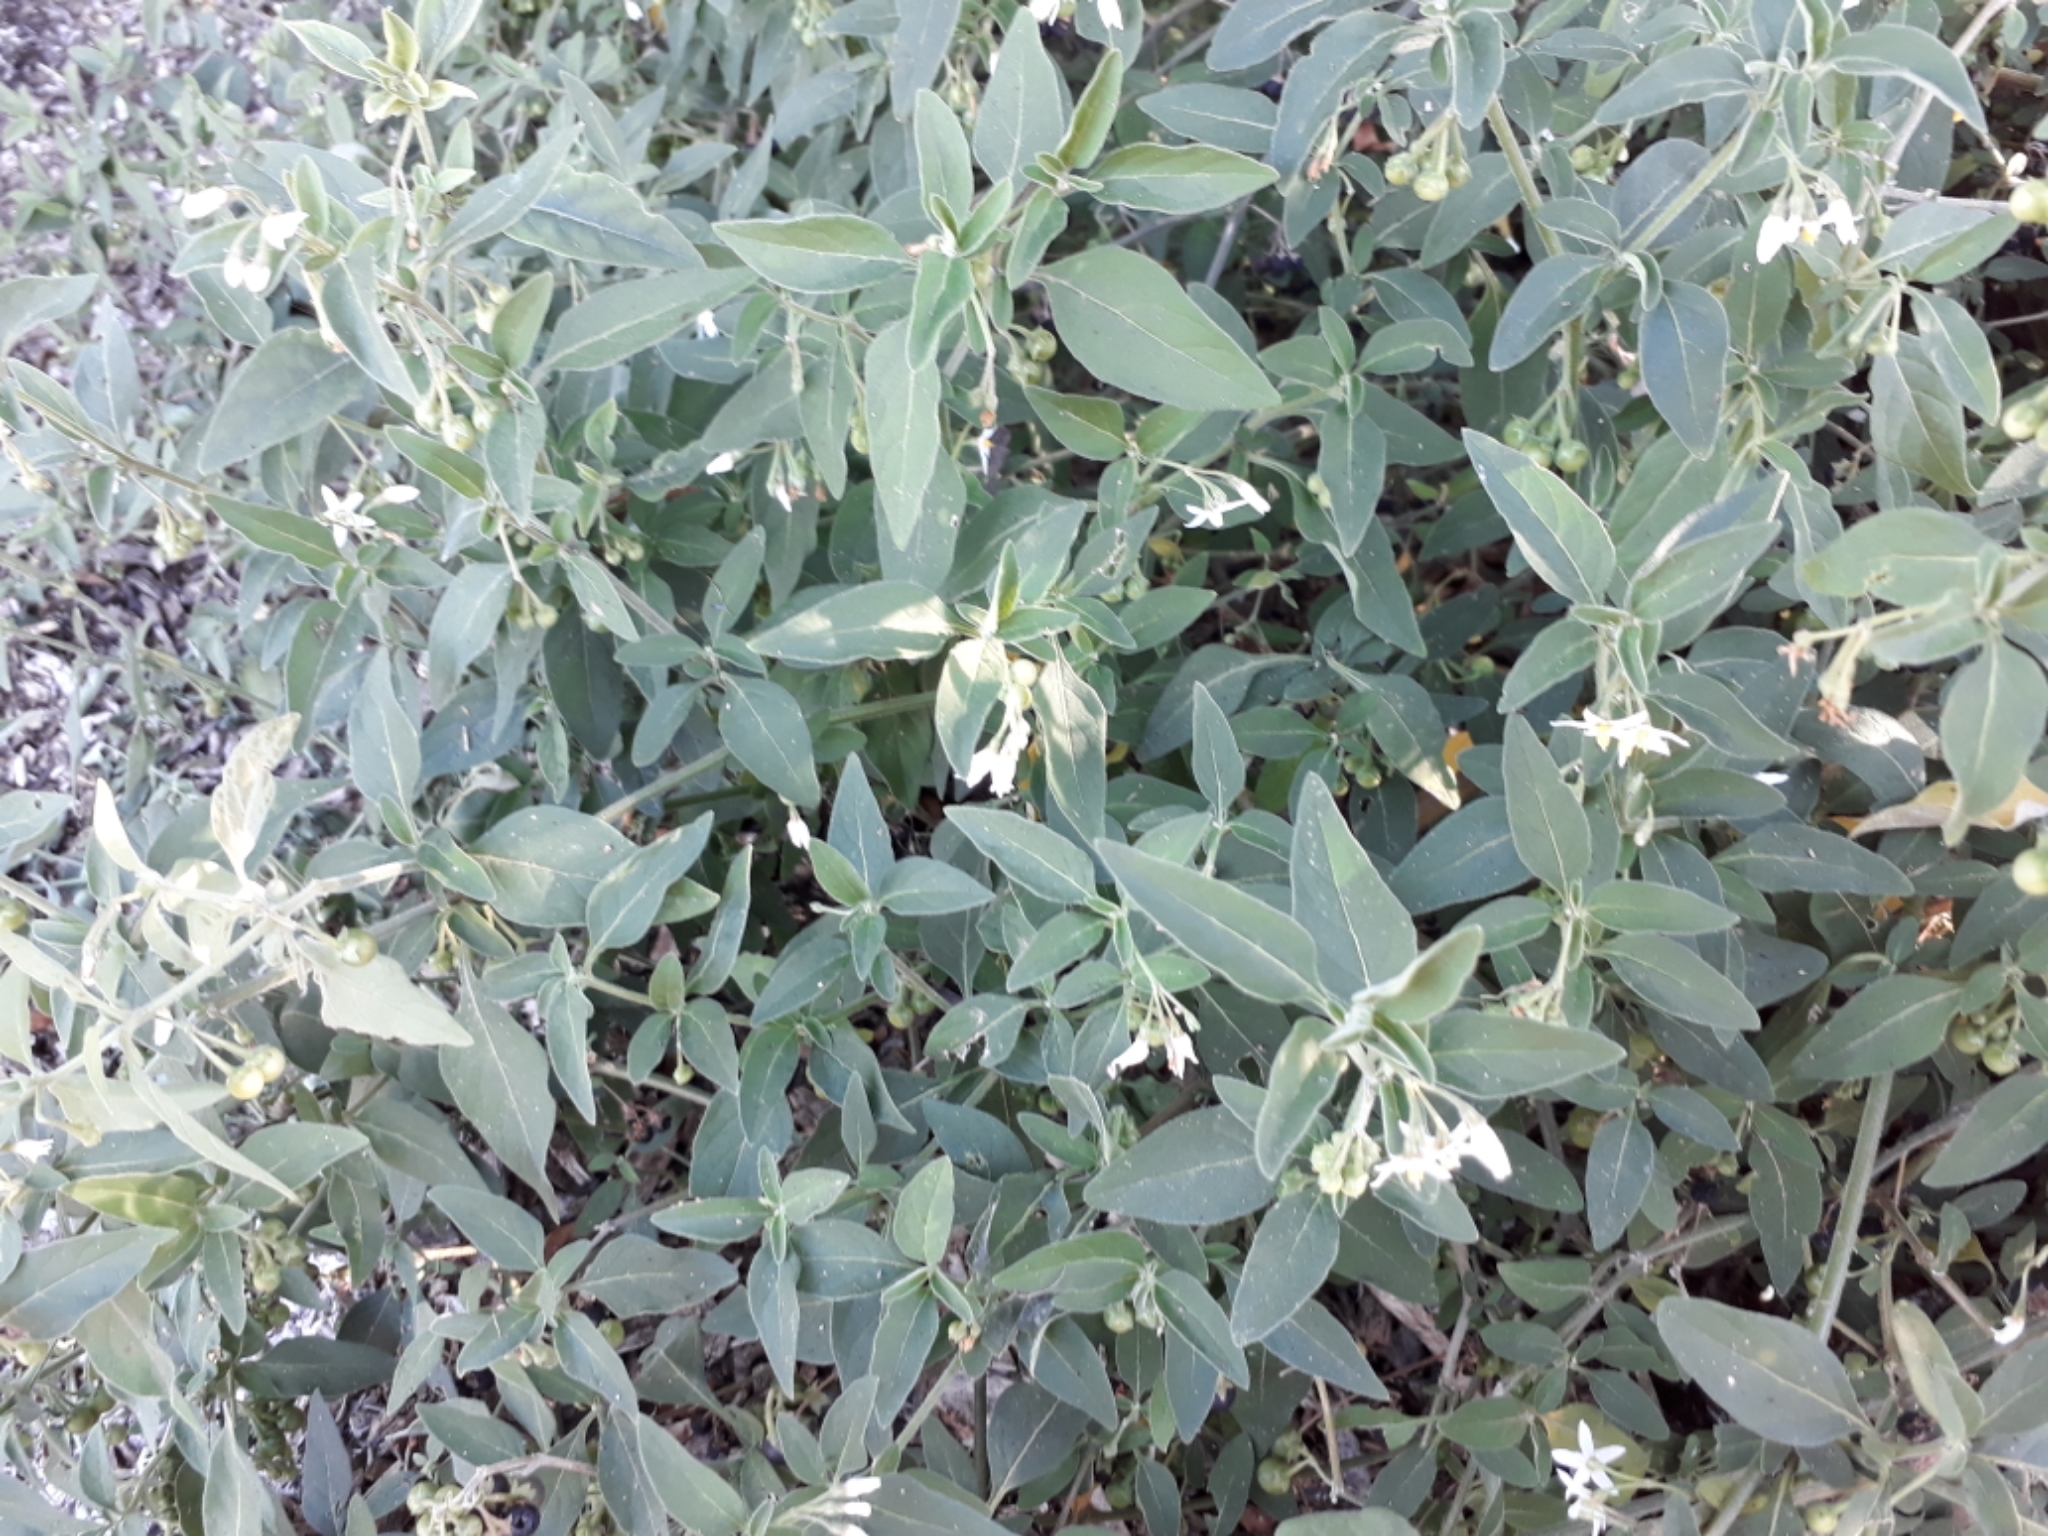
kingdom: Plantae
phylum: Tracheophyta
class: Magnoliopsida
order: Solanales
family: Solanaceae
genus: Solanum
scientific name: Solanum chenopodioides
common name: Tall nightshade
